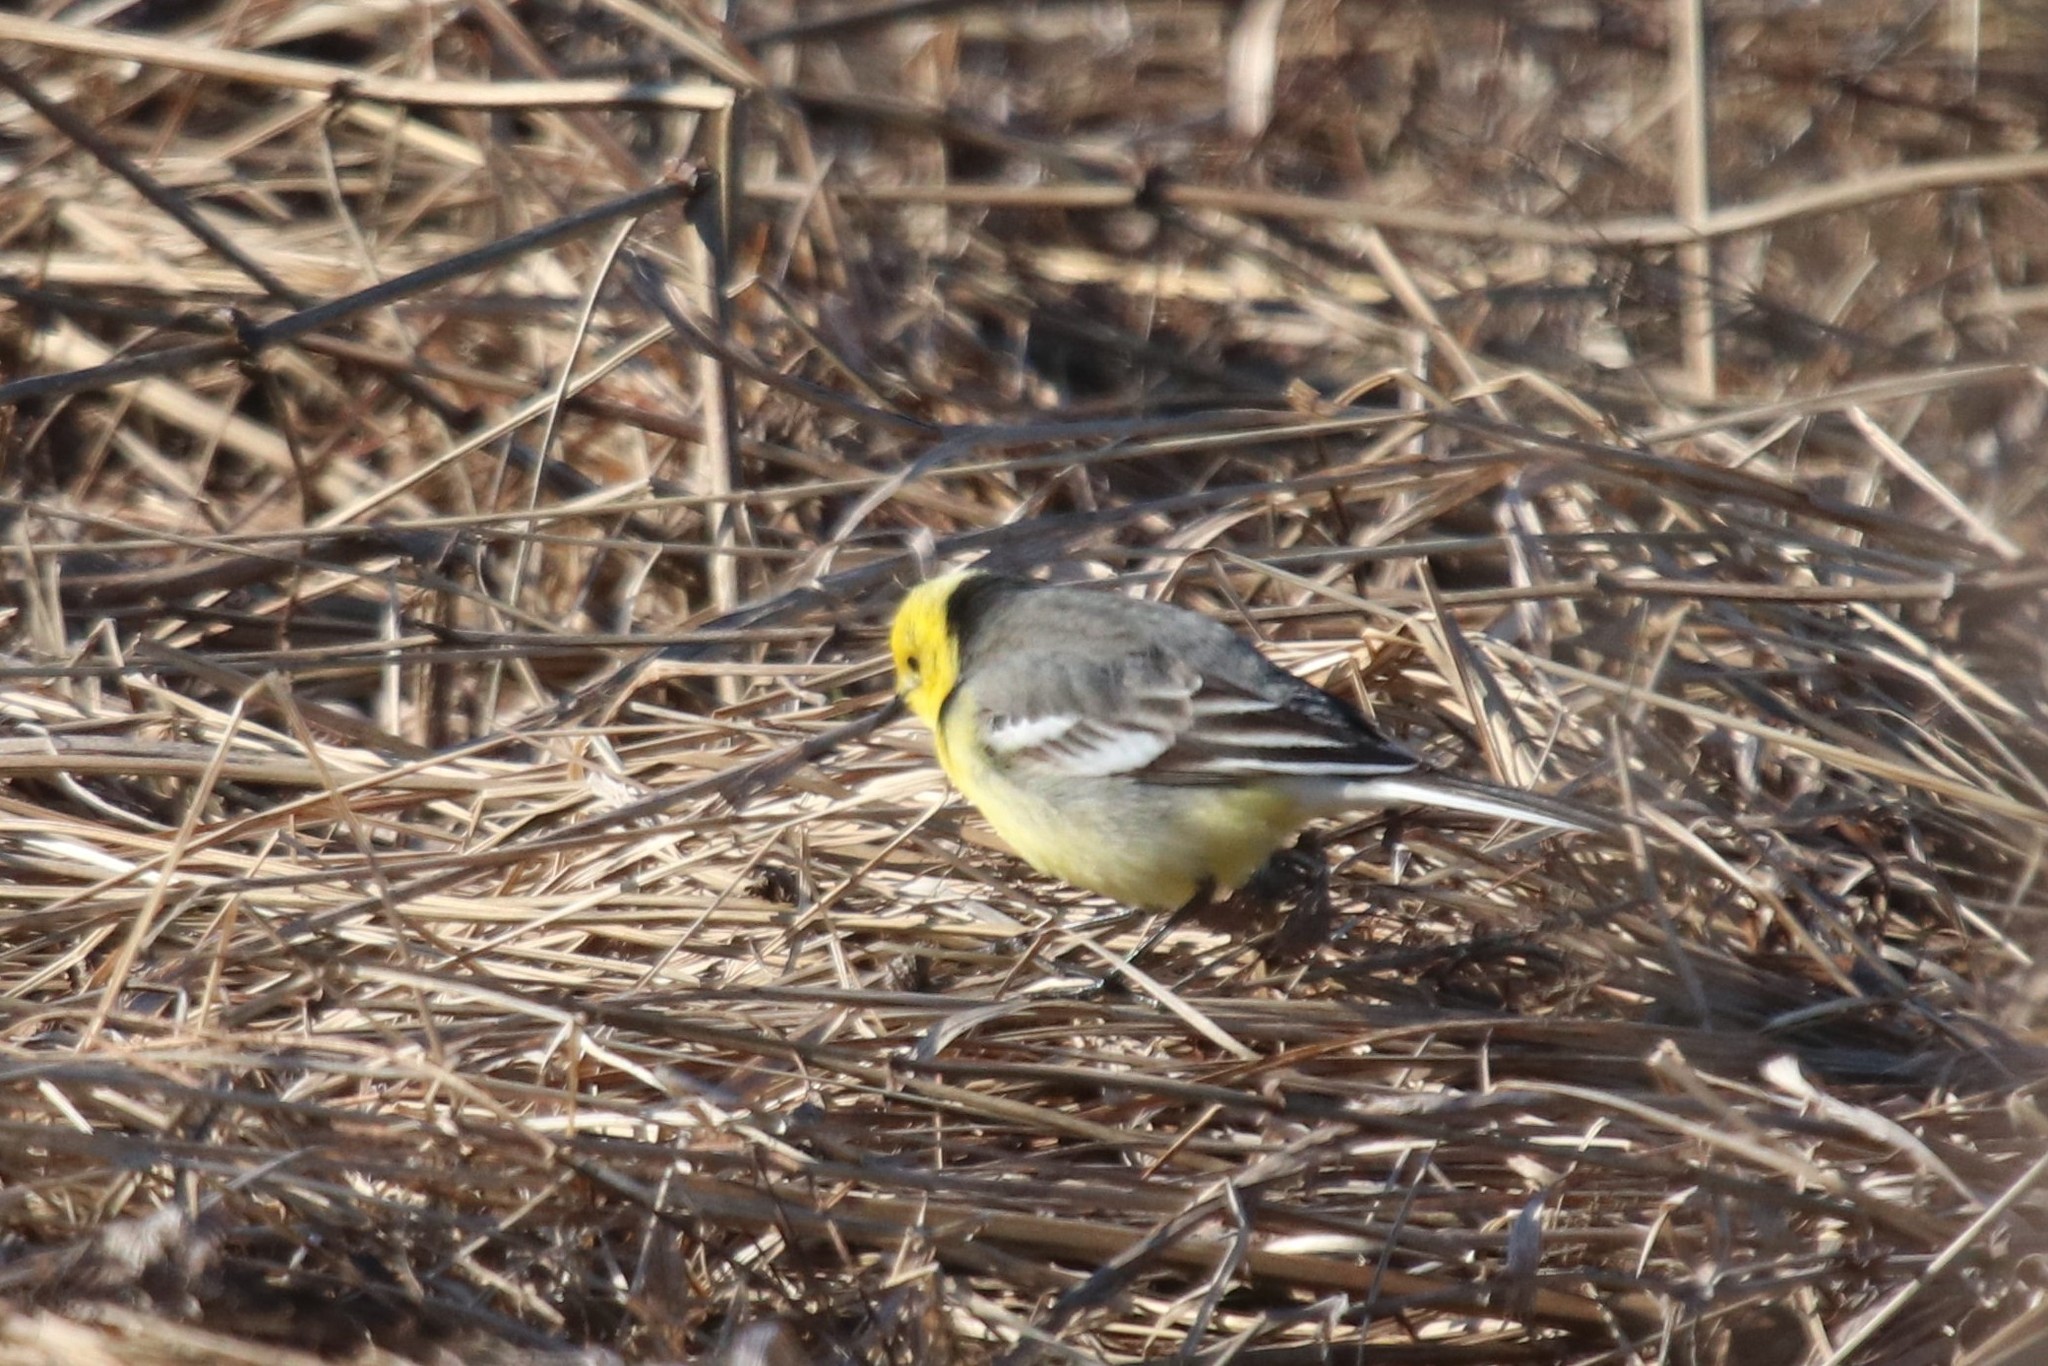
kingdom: Animalia
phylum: Chordata
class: Aves
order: Passeriformes
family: Motacillidae
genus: Motacilla
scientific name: Motacilla citreola
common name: Citrine wagtail
